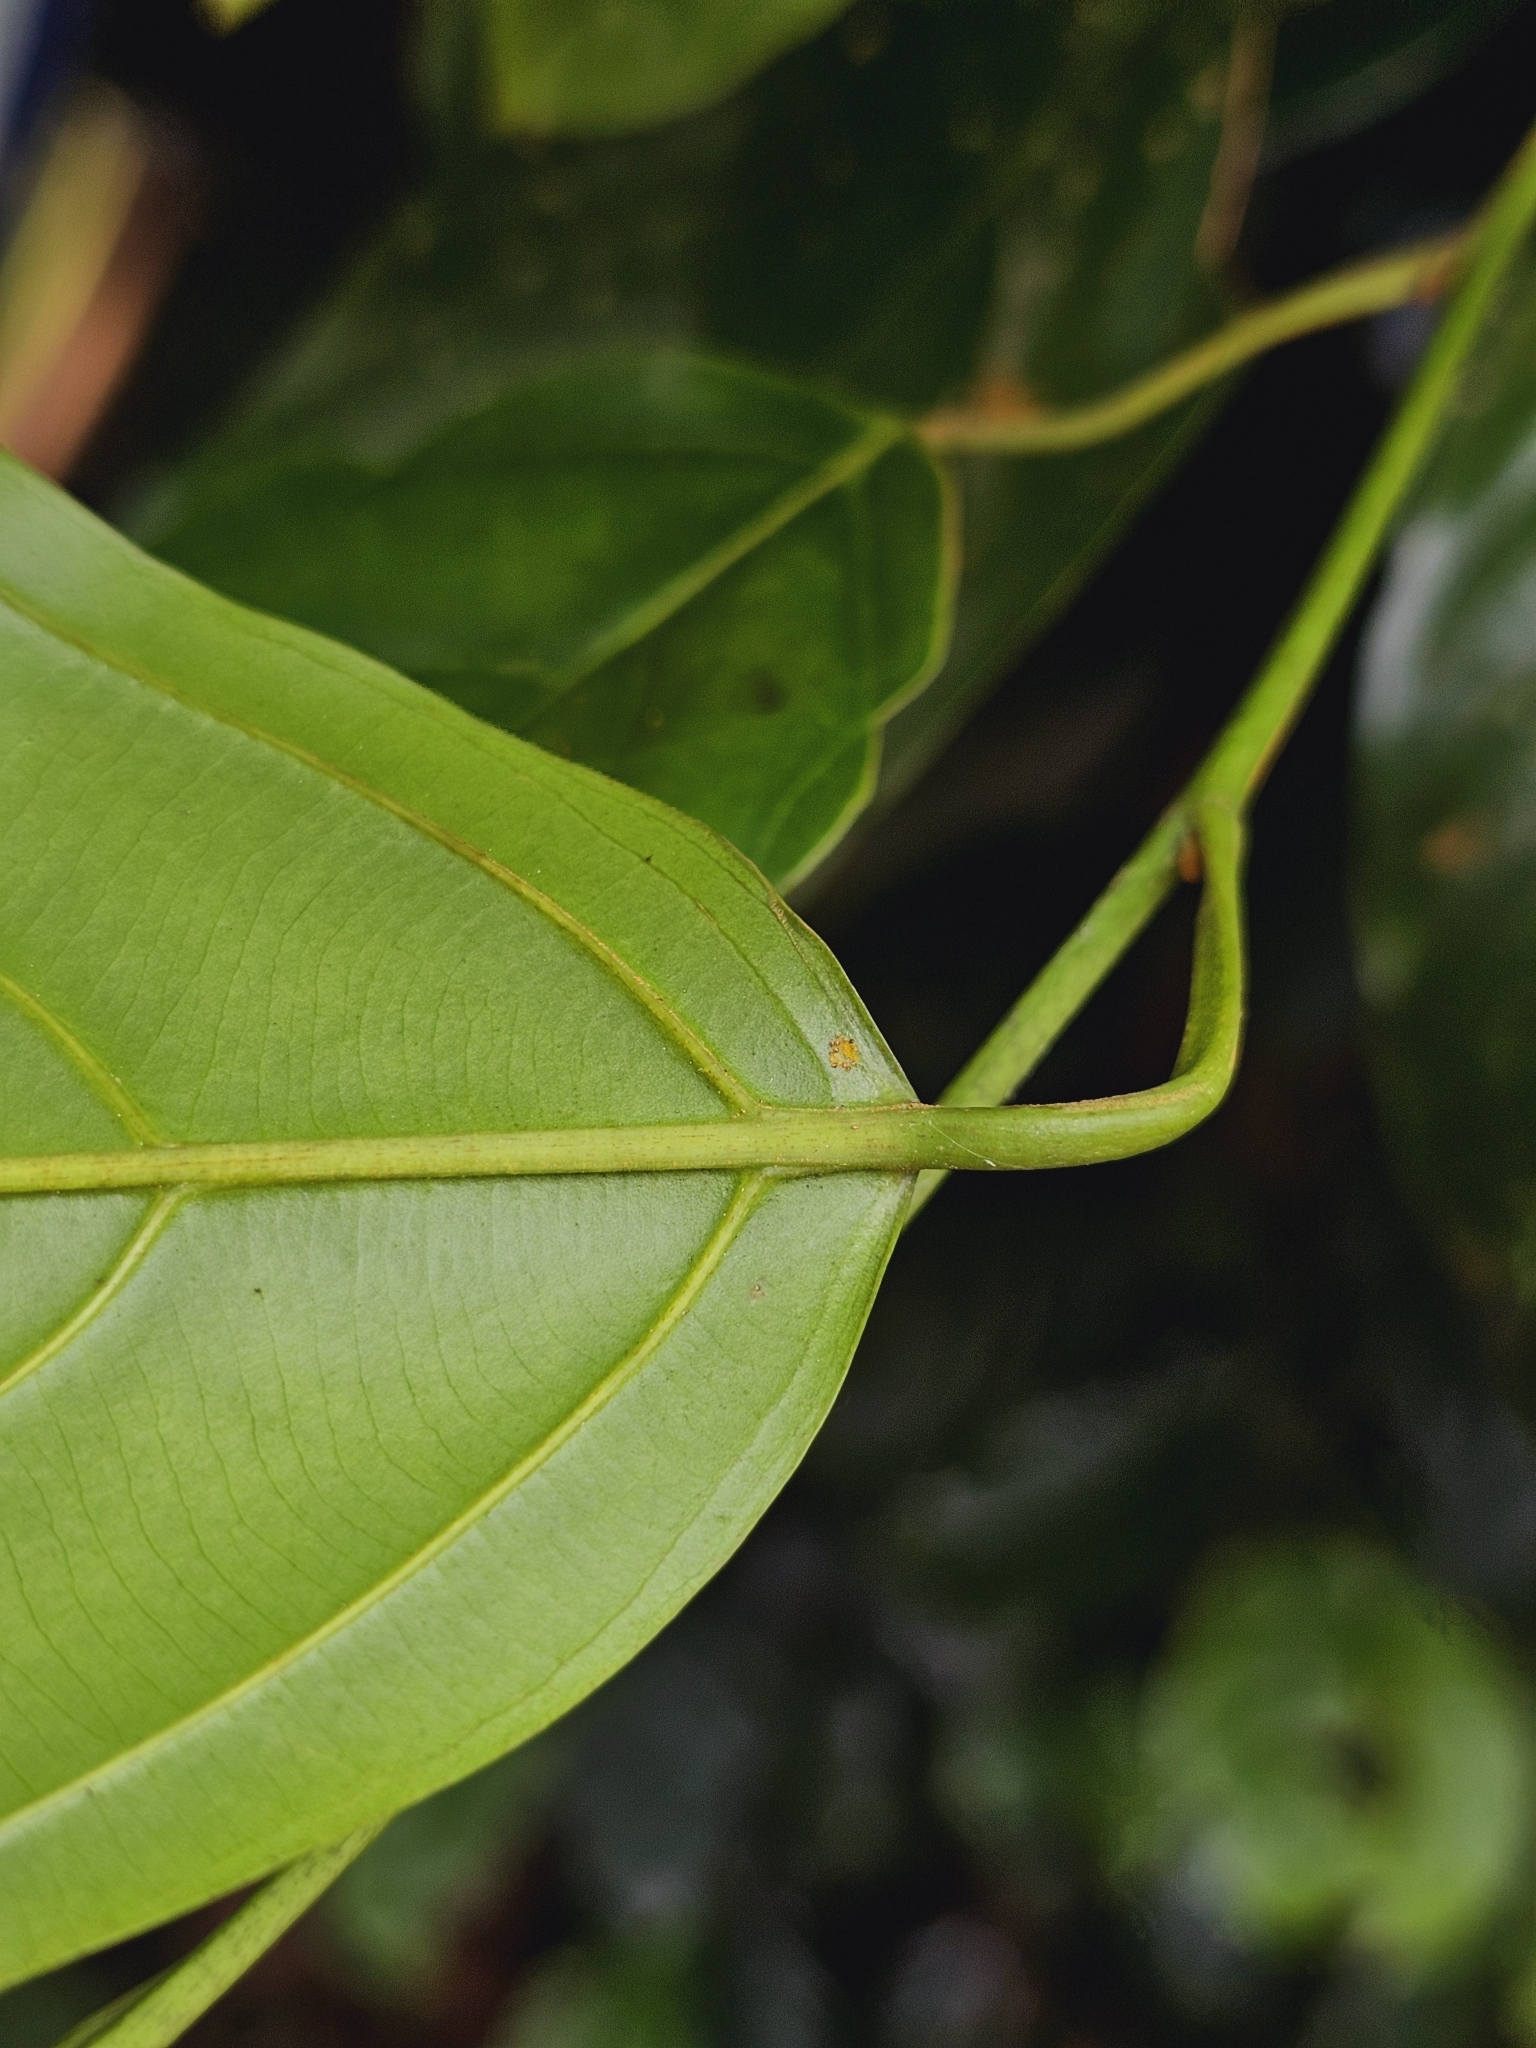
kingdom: Plantae
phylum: Tracheophyta
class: Magnoliopsida
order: Santalales
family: Coulaceae
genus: Ochanostachys
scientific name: Ochanostachys amentacea
